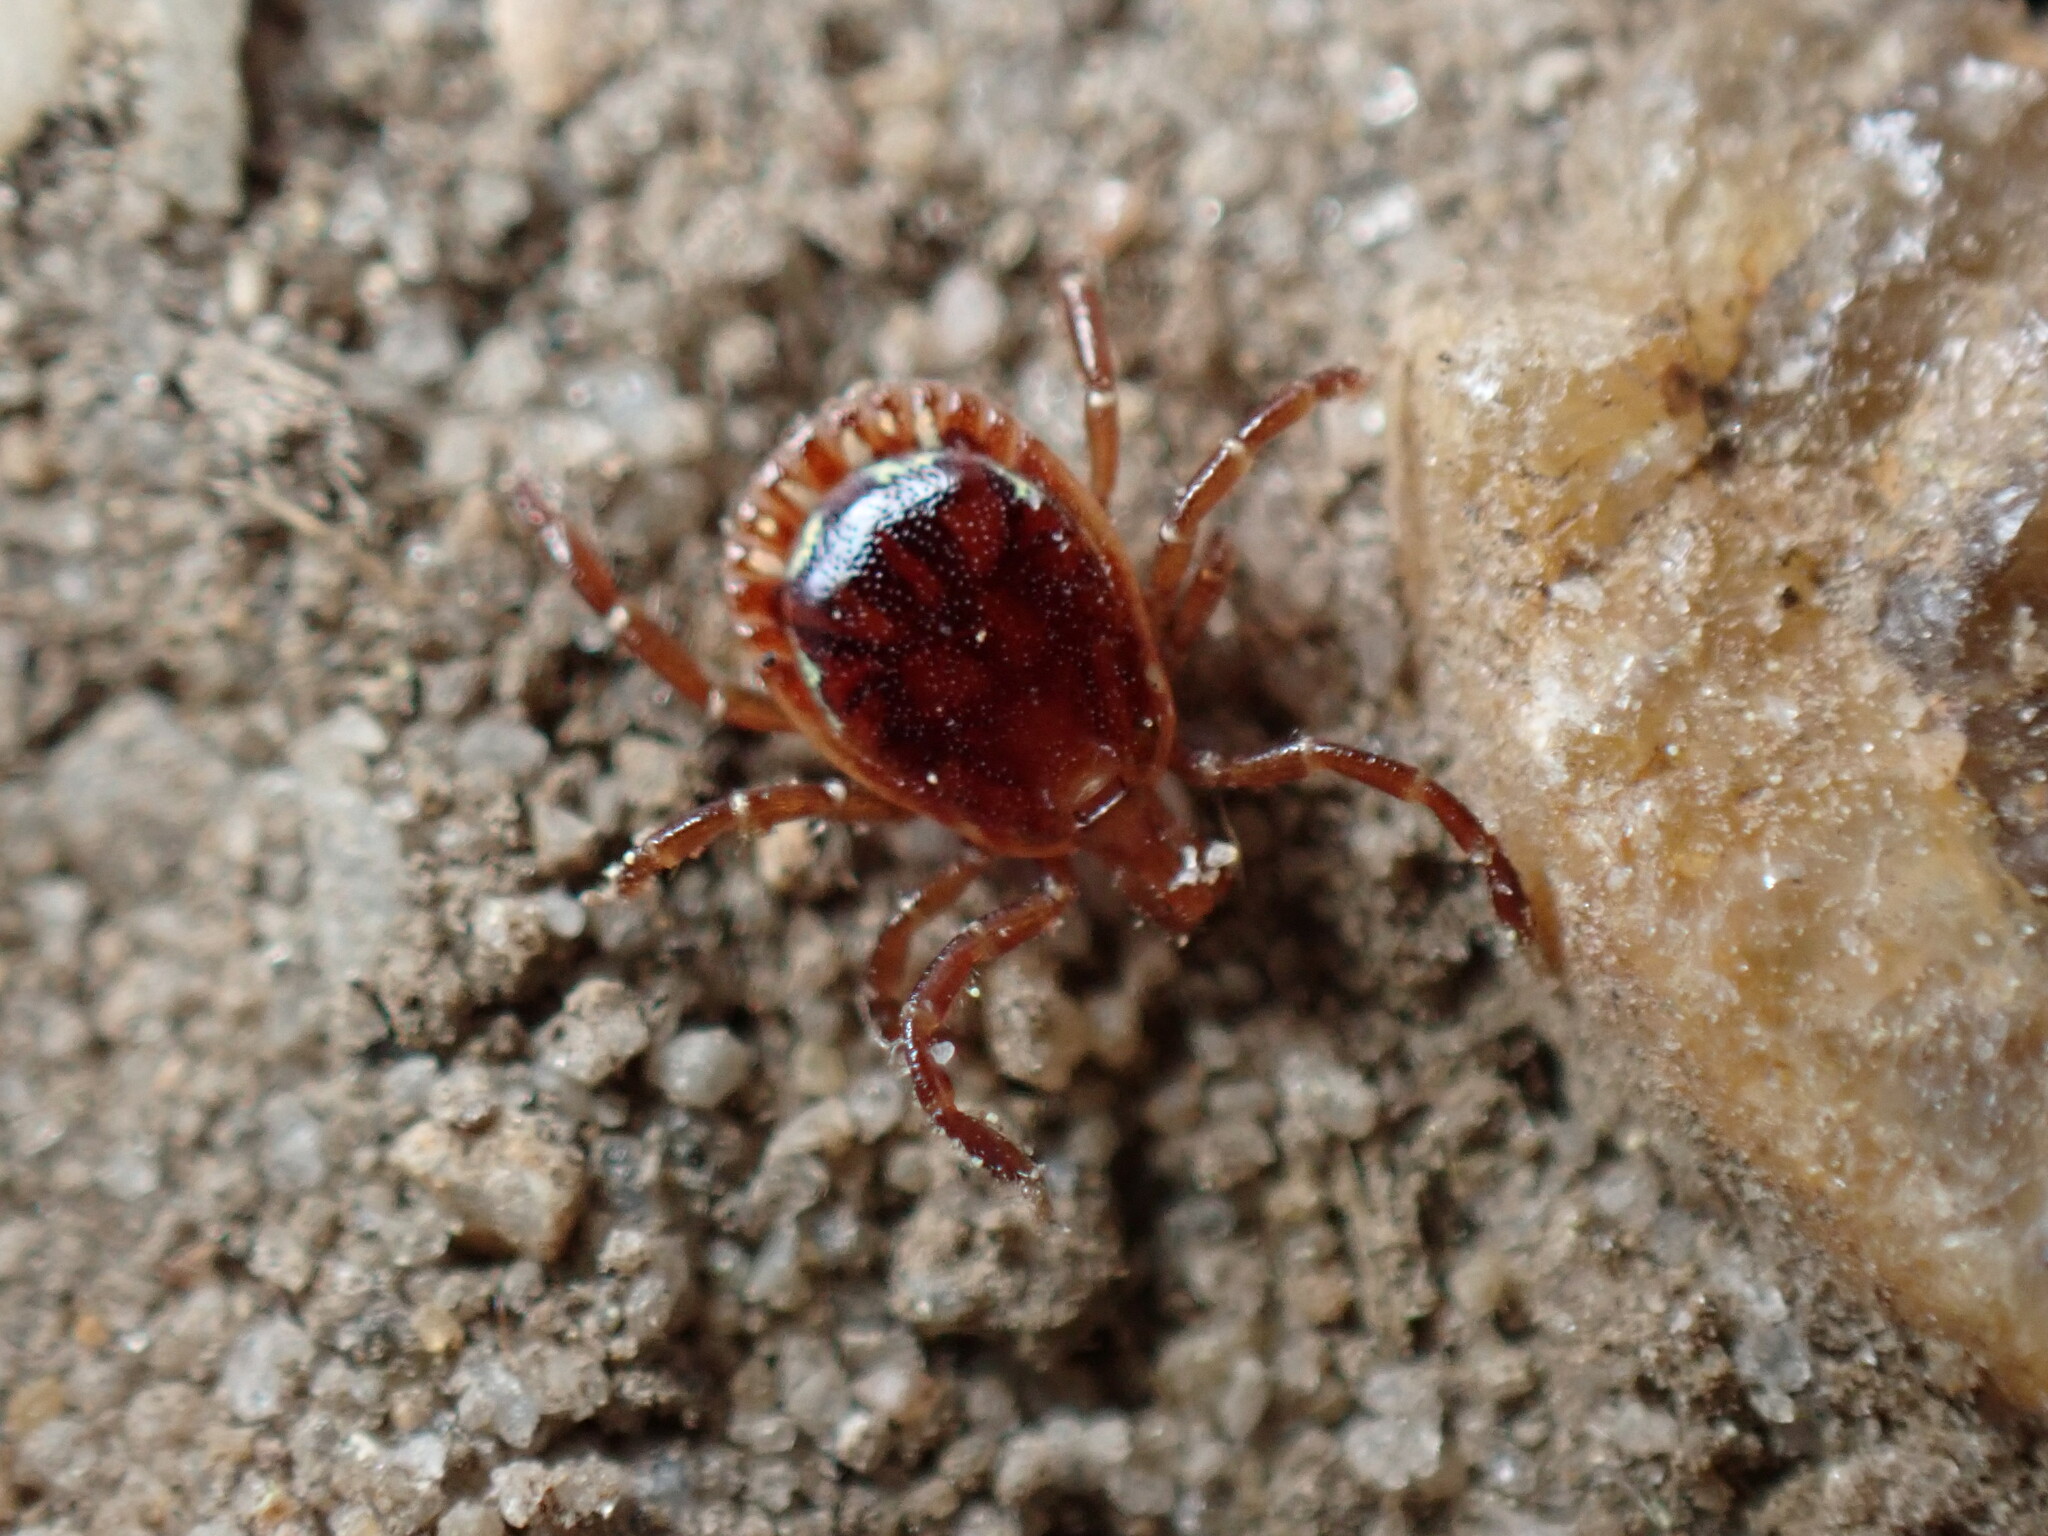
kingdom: Animalia
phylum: Arthropoda
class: Arachnida
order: Ixodida
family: Ixodidae
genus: Amblyomma
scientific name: Amblyomma americanum
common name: Lone star tick
